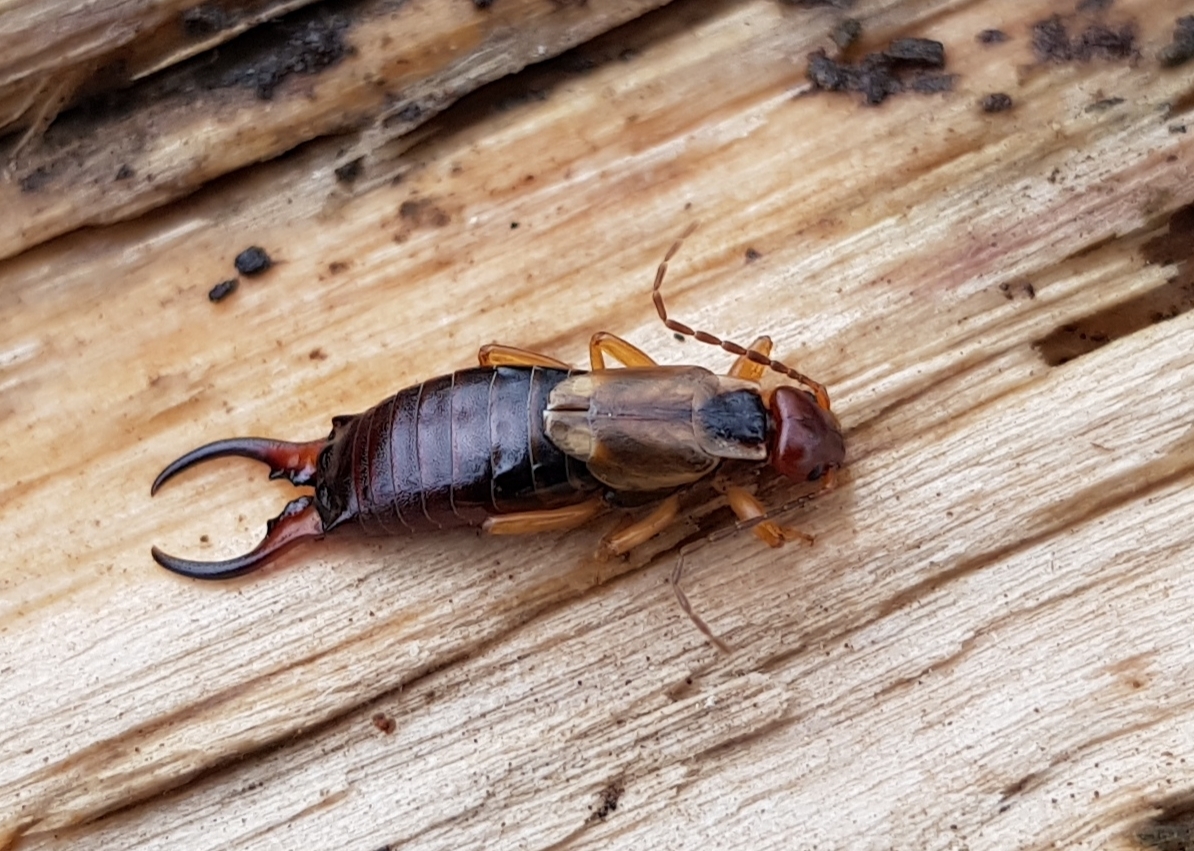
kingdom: Animalia
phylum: Arthropoda
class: Insecta
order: Dermaptera
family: Forficulidae
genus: Forficula
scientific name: Forficula
